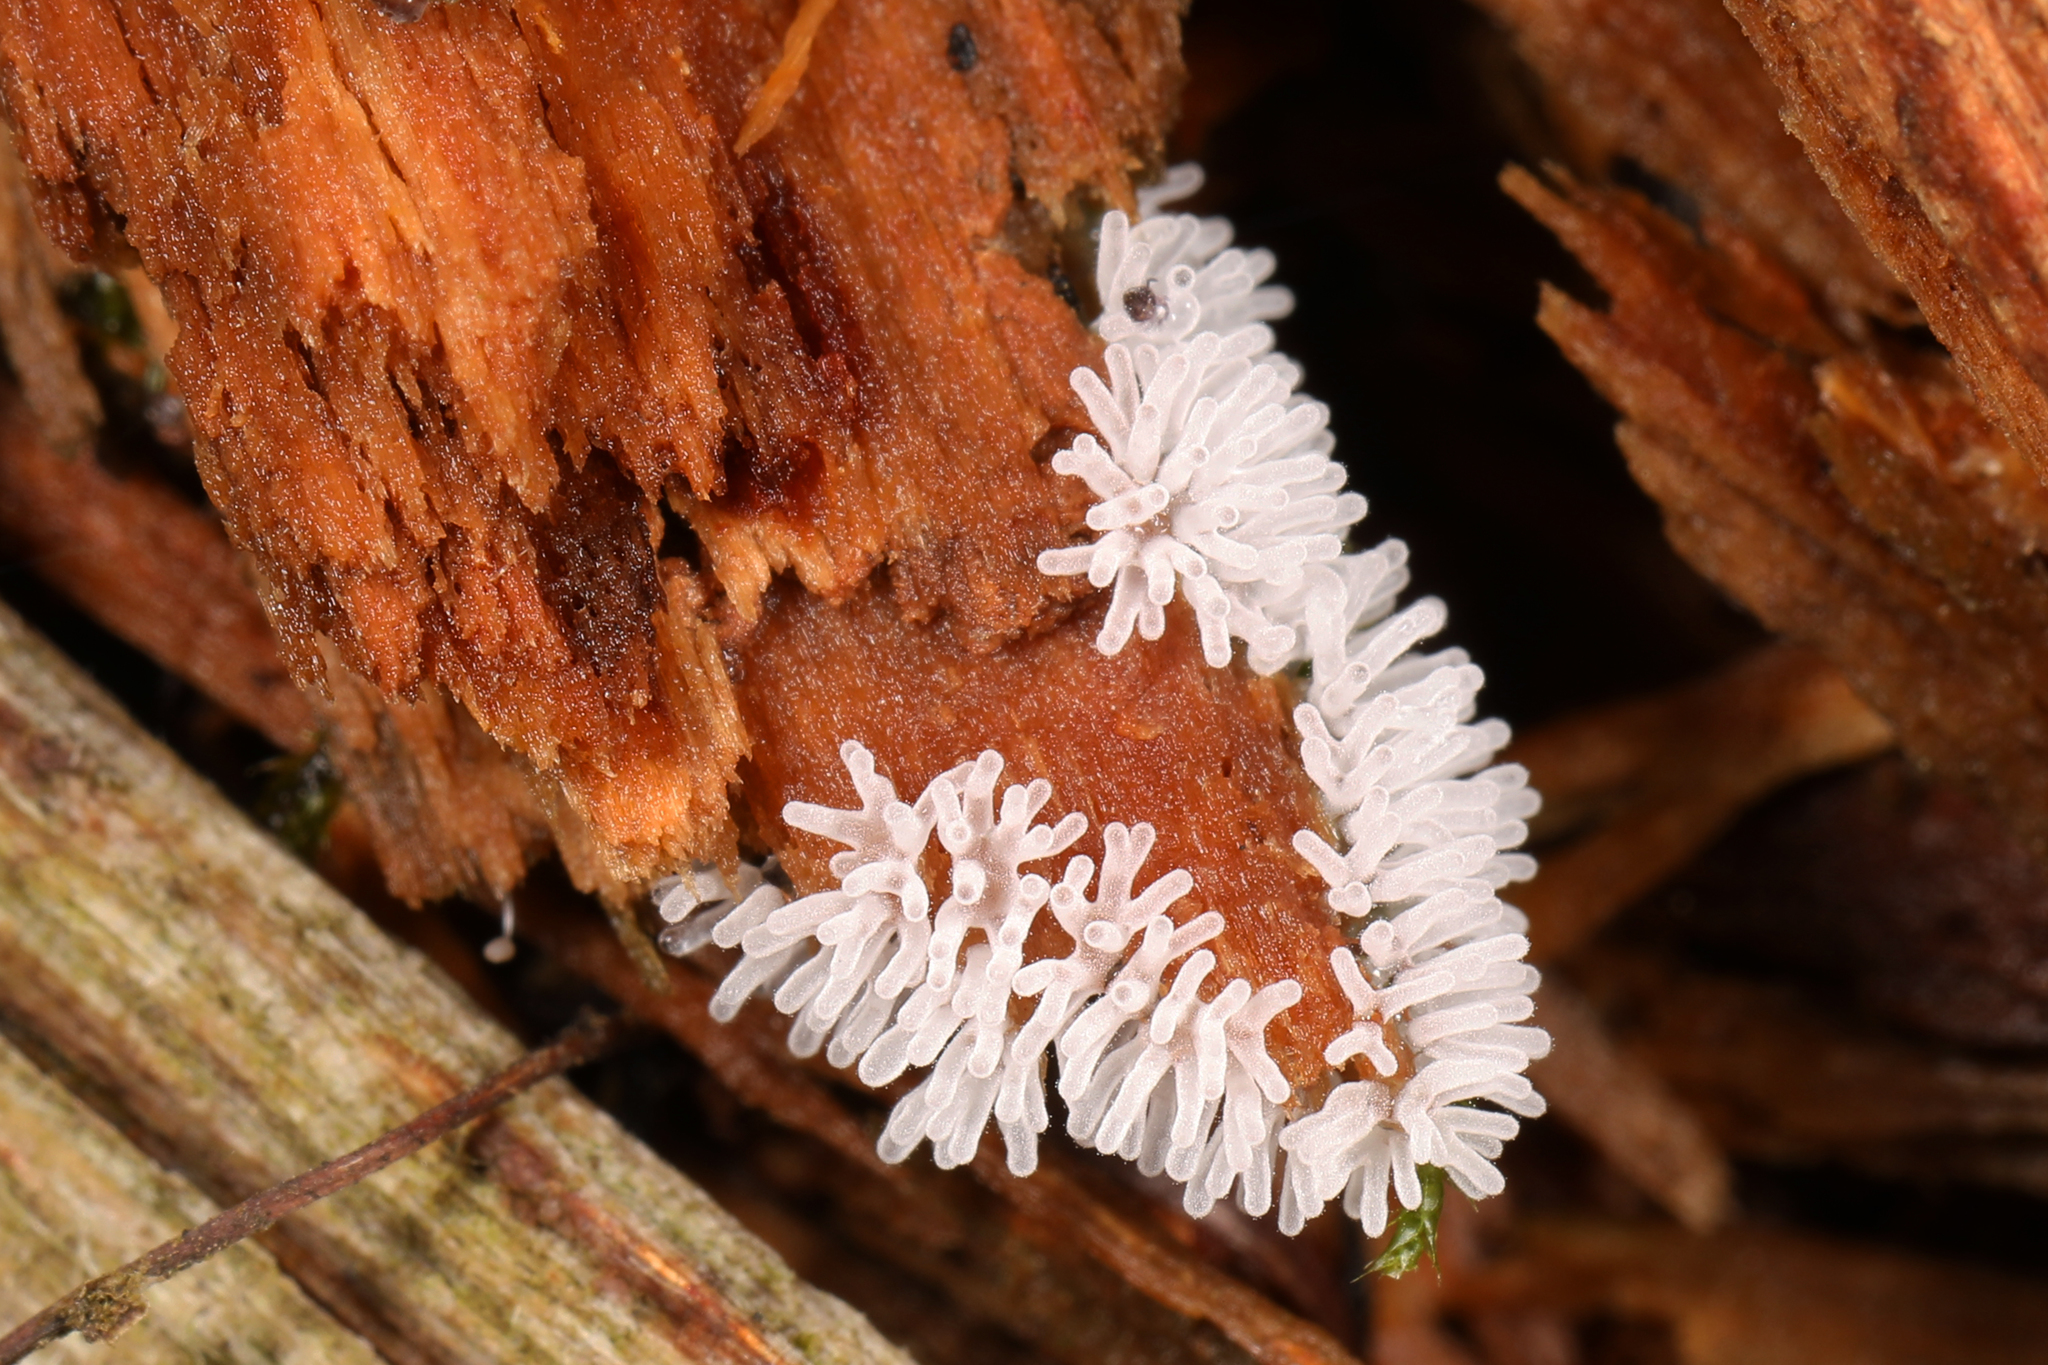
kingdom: Protozoa
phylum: Mycetozoa
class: Protosteliomycetes
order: Ceratiomyxales
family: Ceratiomyxaceae
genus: Ceratiomyxa
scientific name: Ceratiomyxa fruticulosa
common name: Honeycomb coral slime mold
